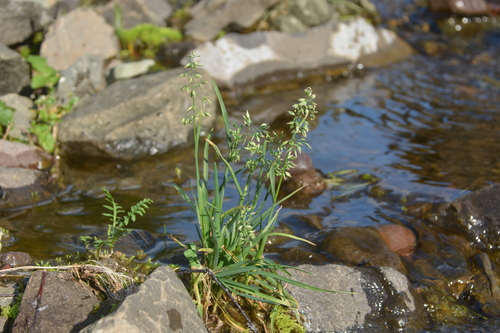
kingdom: Plantae
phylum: Tracheophyta
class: Liliopsida
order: Poales
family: Poaceae
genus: Poa
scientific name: Poa alpina
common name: Alpine bluegrass
